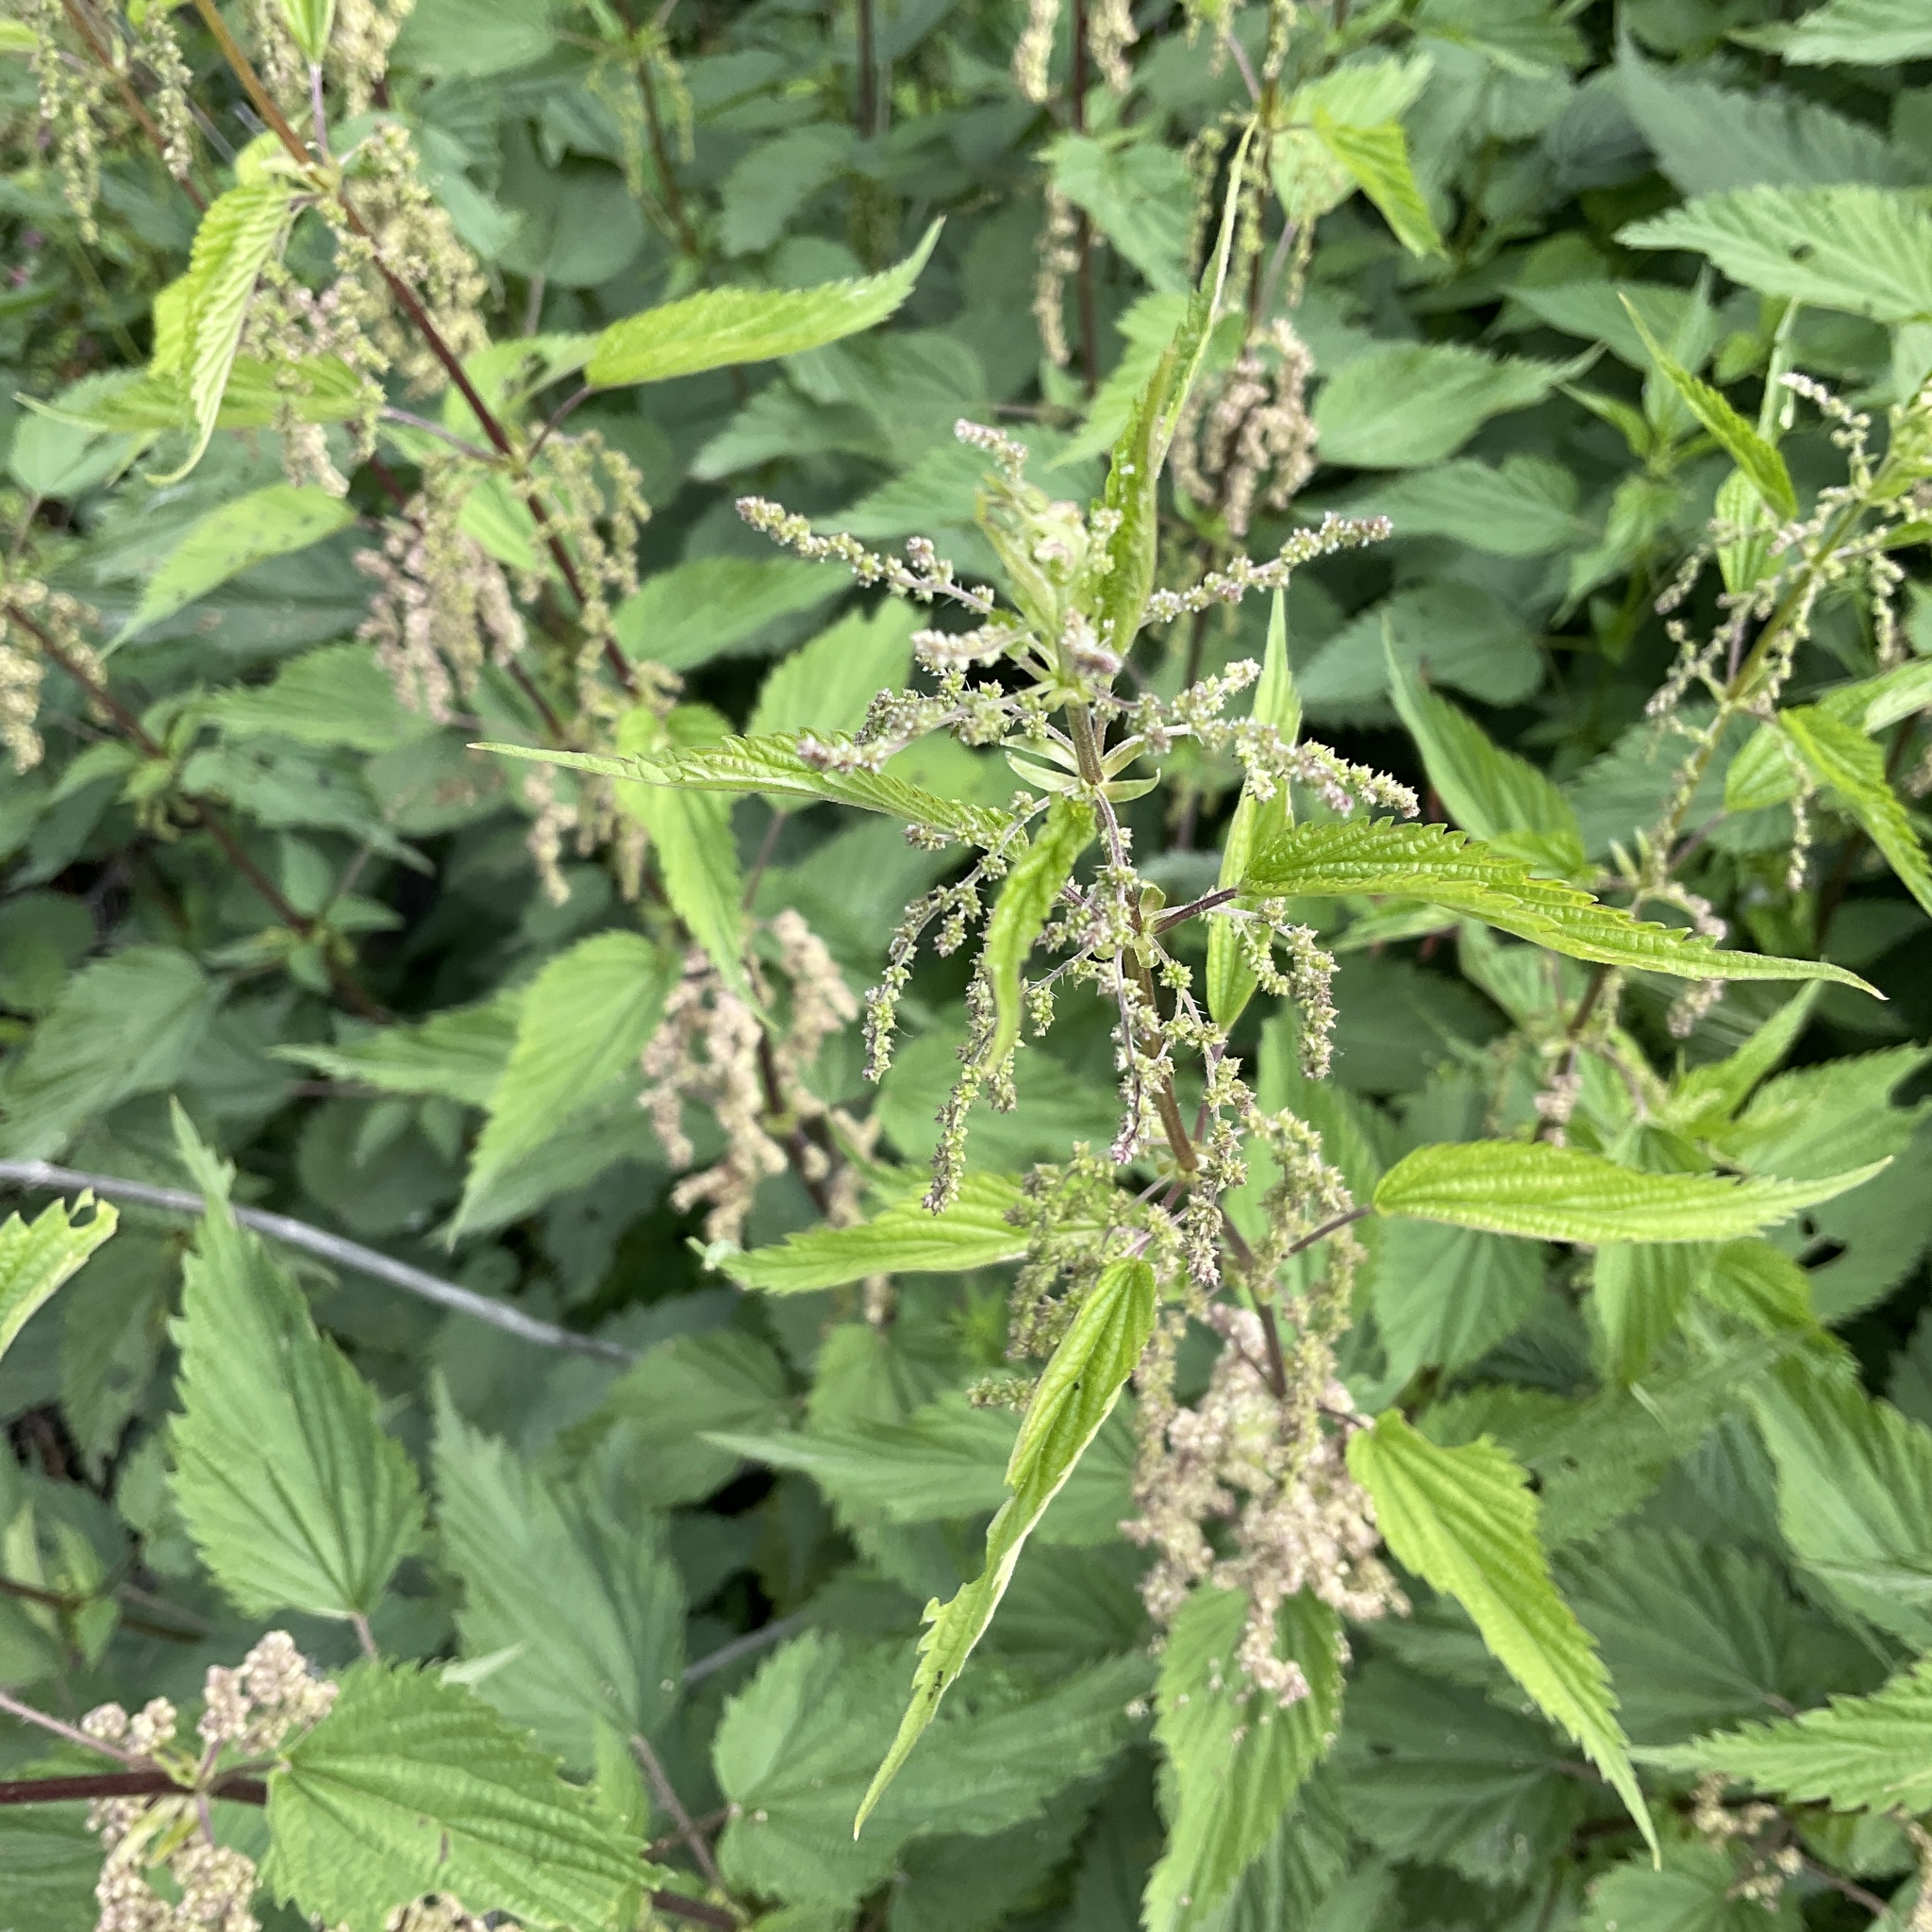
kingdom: Plantae
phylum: Tracheophyta
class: Magnoliopsida
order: Rosales
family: Urticaceae
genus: Urtica
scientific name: Urtica dioica
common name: Common nettle
